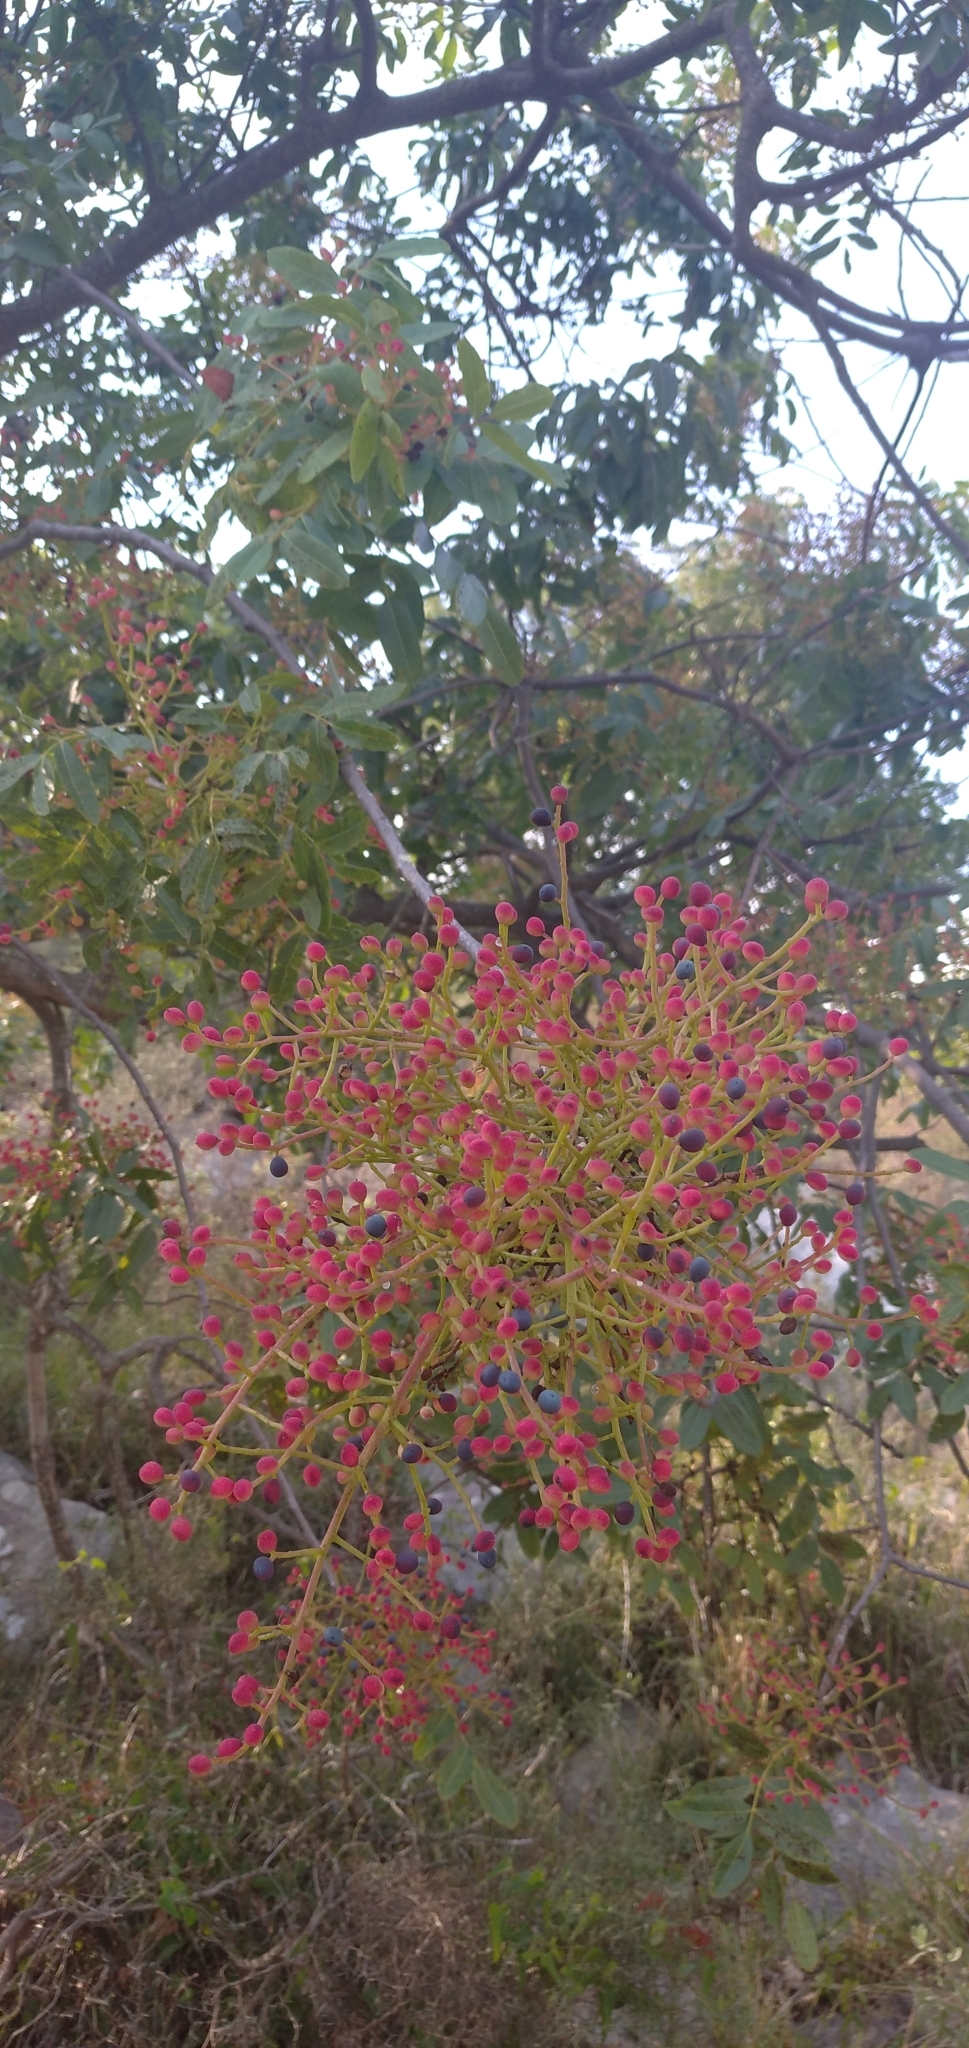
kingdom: Plantae
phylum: Tracheophyta
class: Magnoliopsida
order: Sapindales
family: Anacardiaceae
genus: Pistacia
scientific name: Pistacia terebinthus
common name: Terebinth
